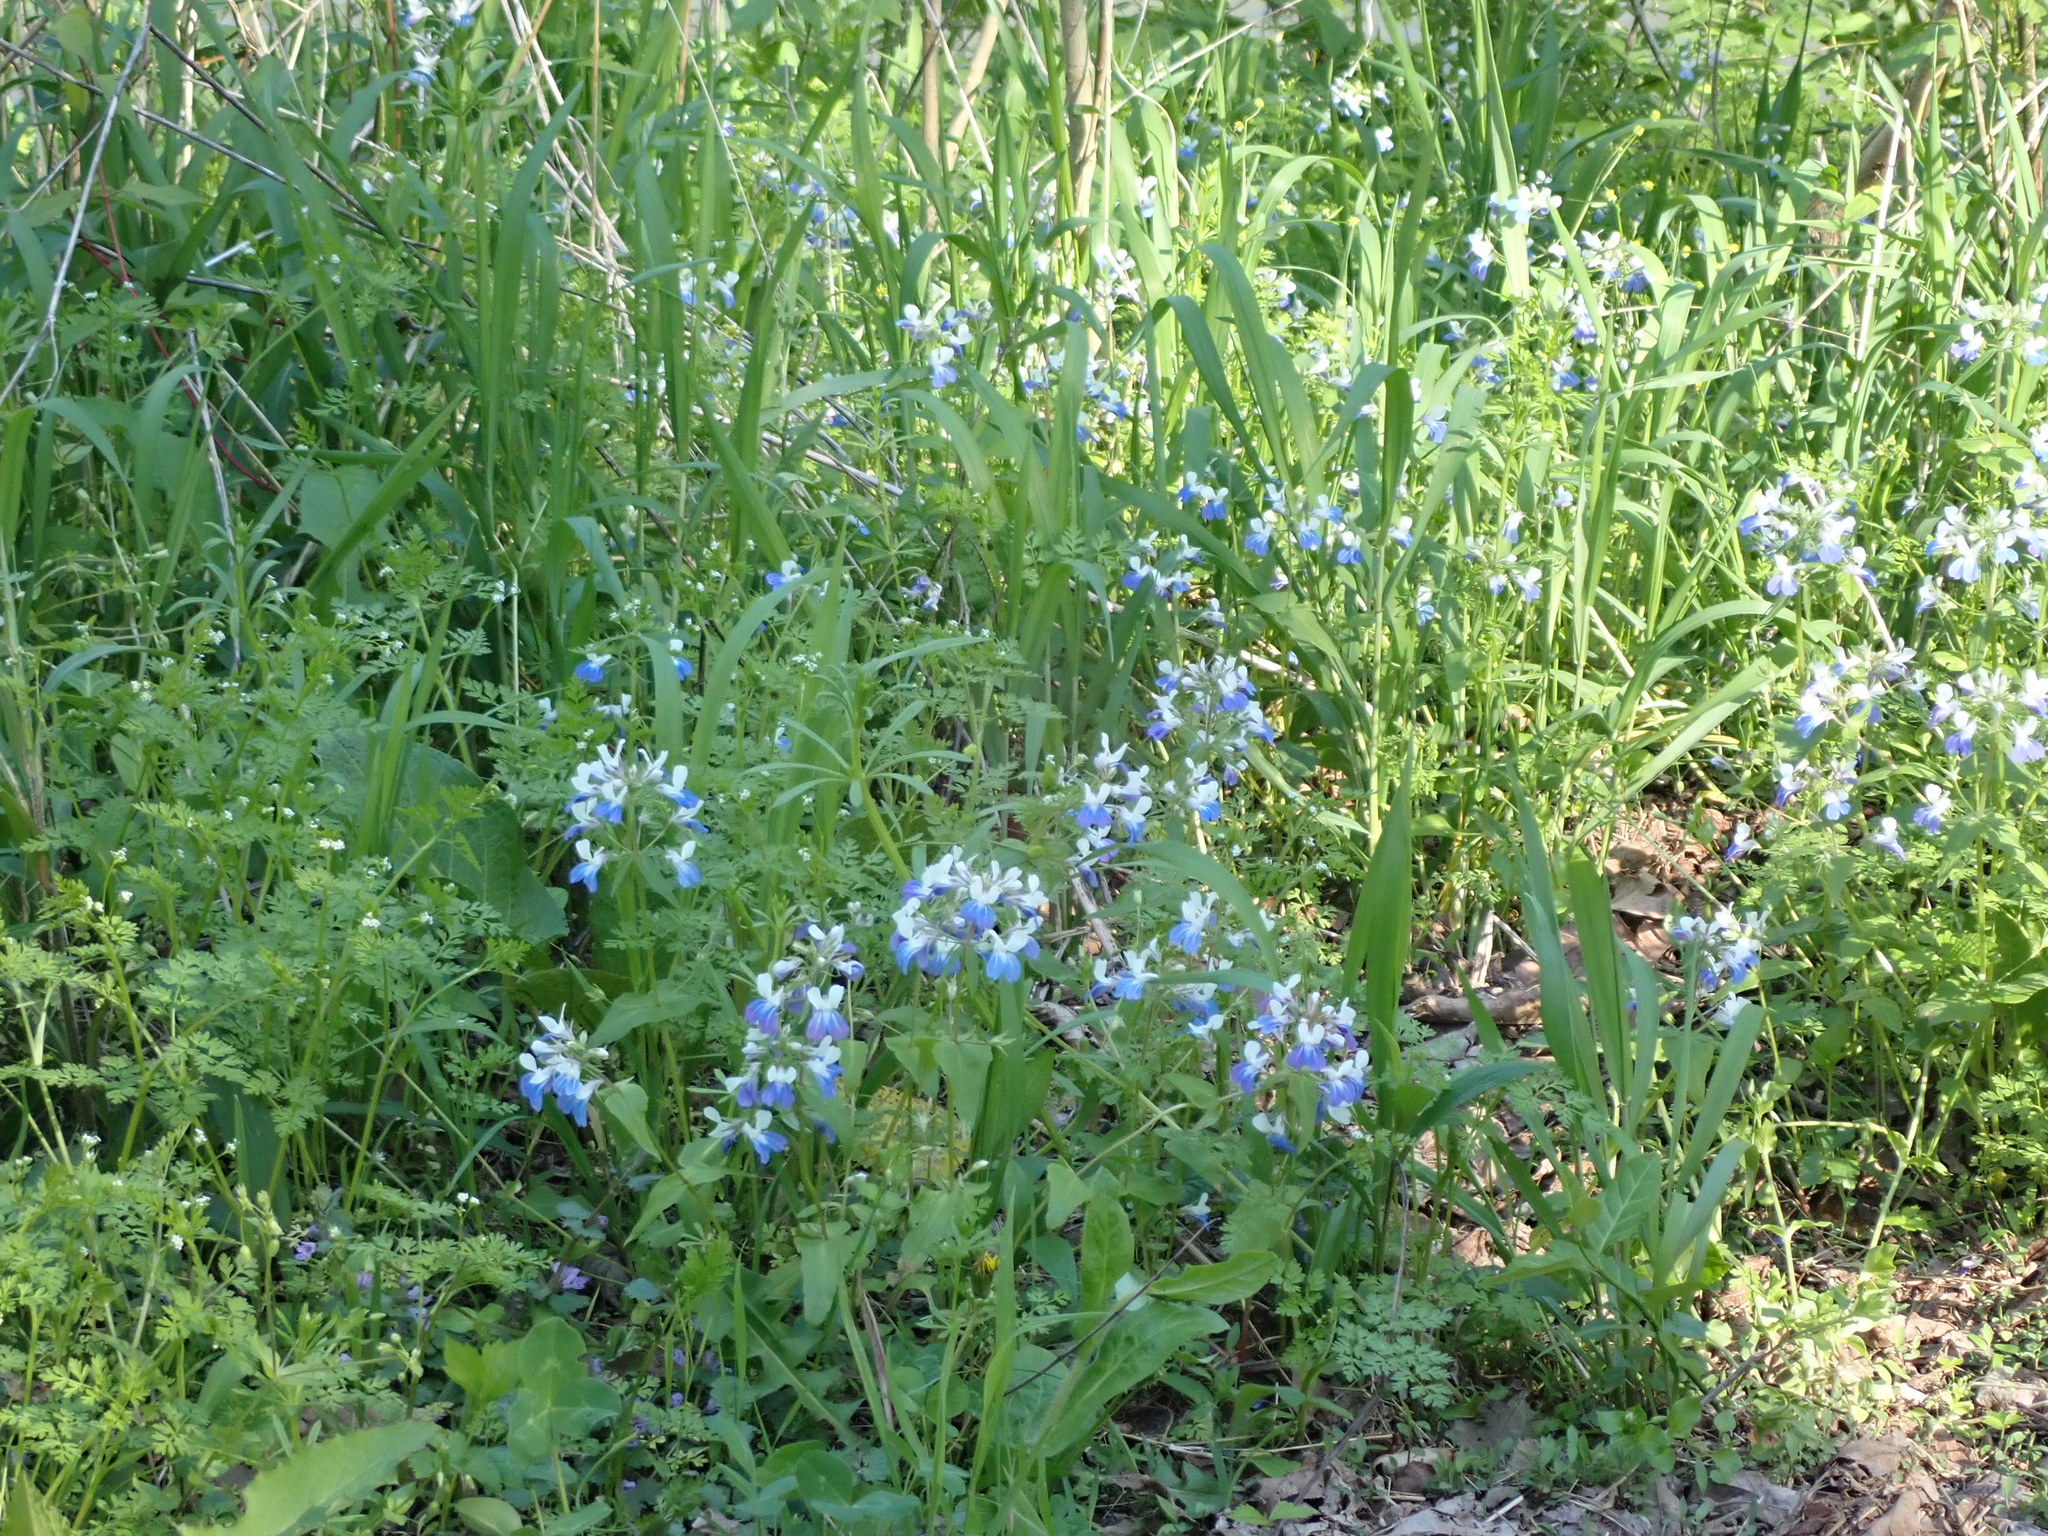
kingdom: Plantae
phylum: Tracheophyta
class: Magnoliopsida
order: Lamiales
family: Plantaginaceae
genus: Collinsia
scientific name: Collinsia verna
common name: Broad-leaved collinsia
